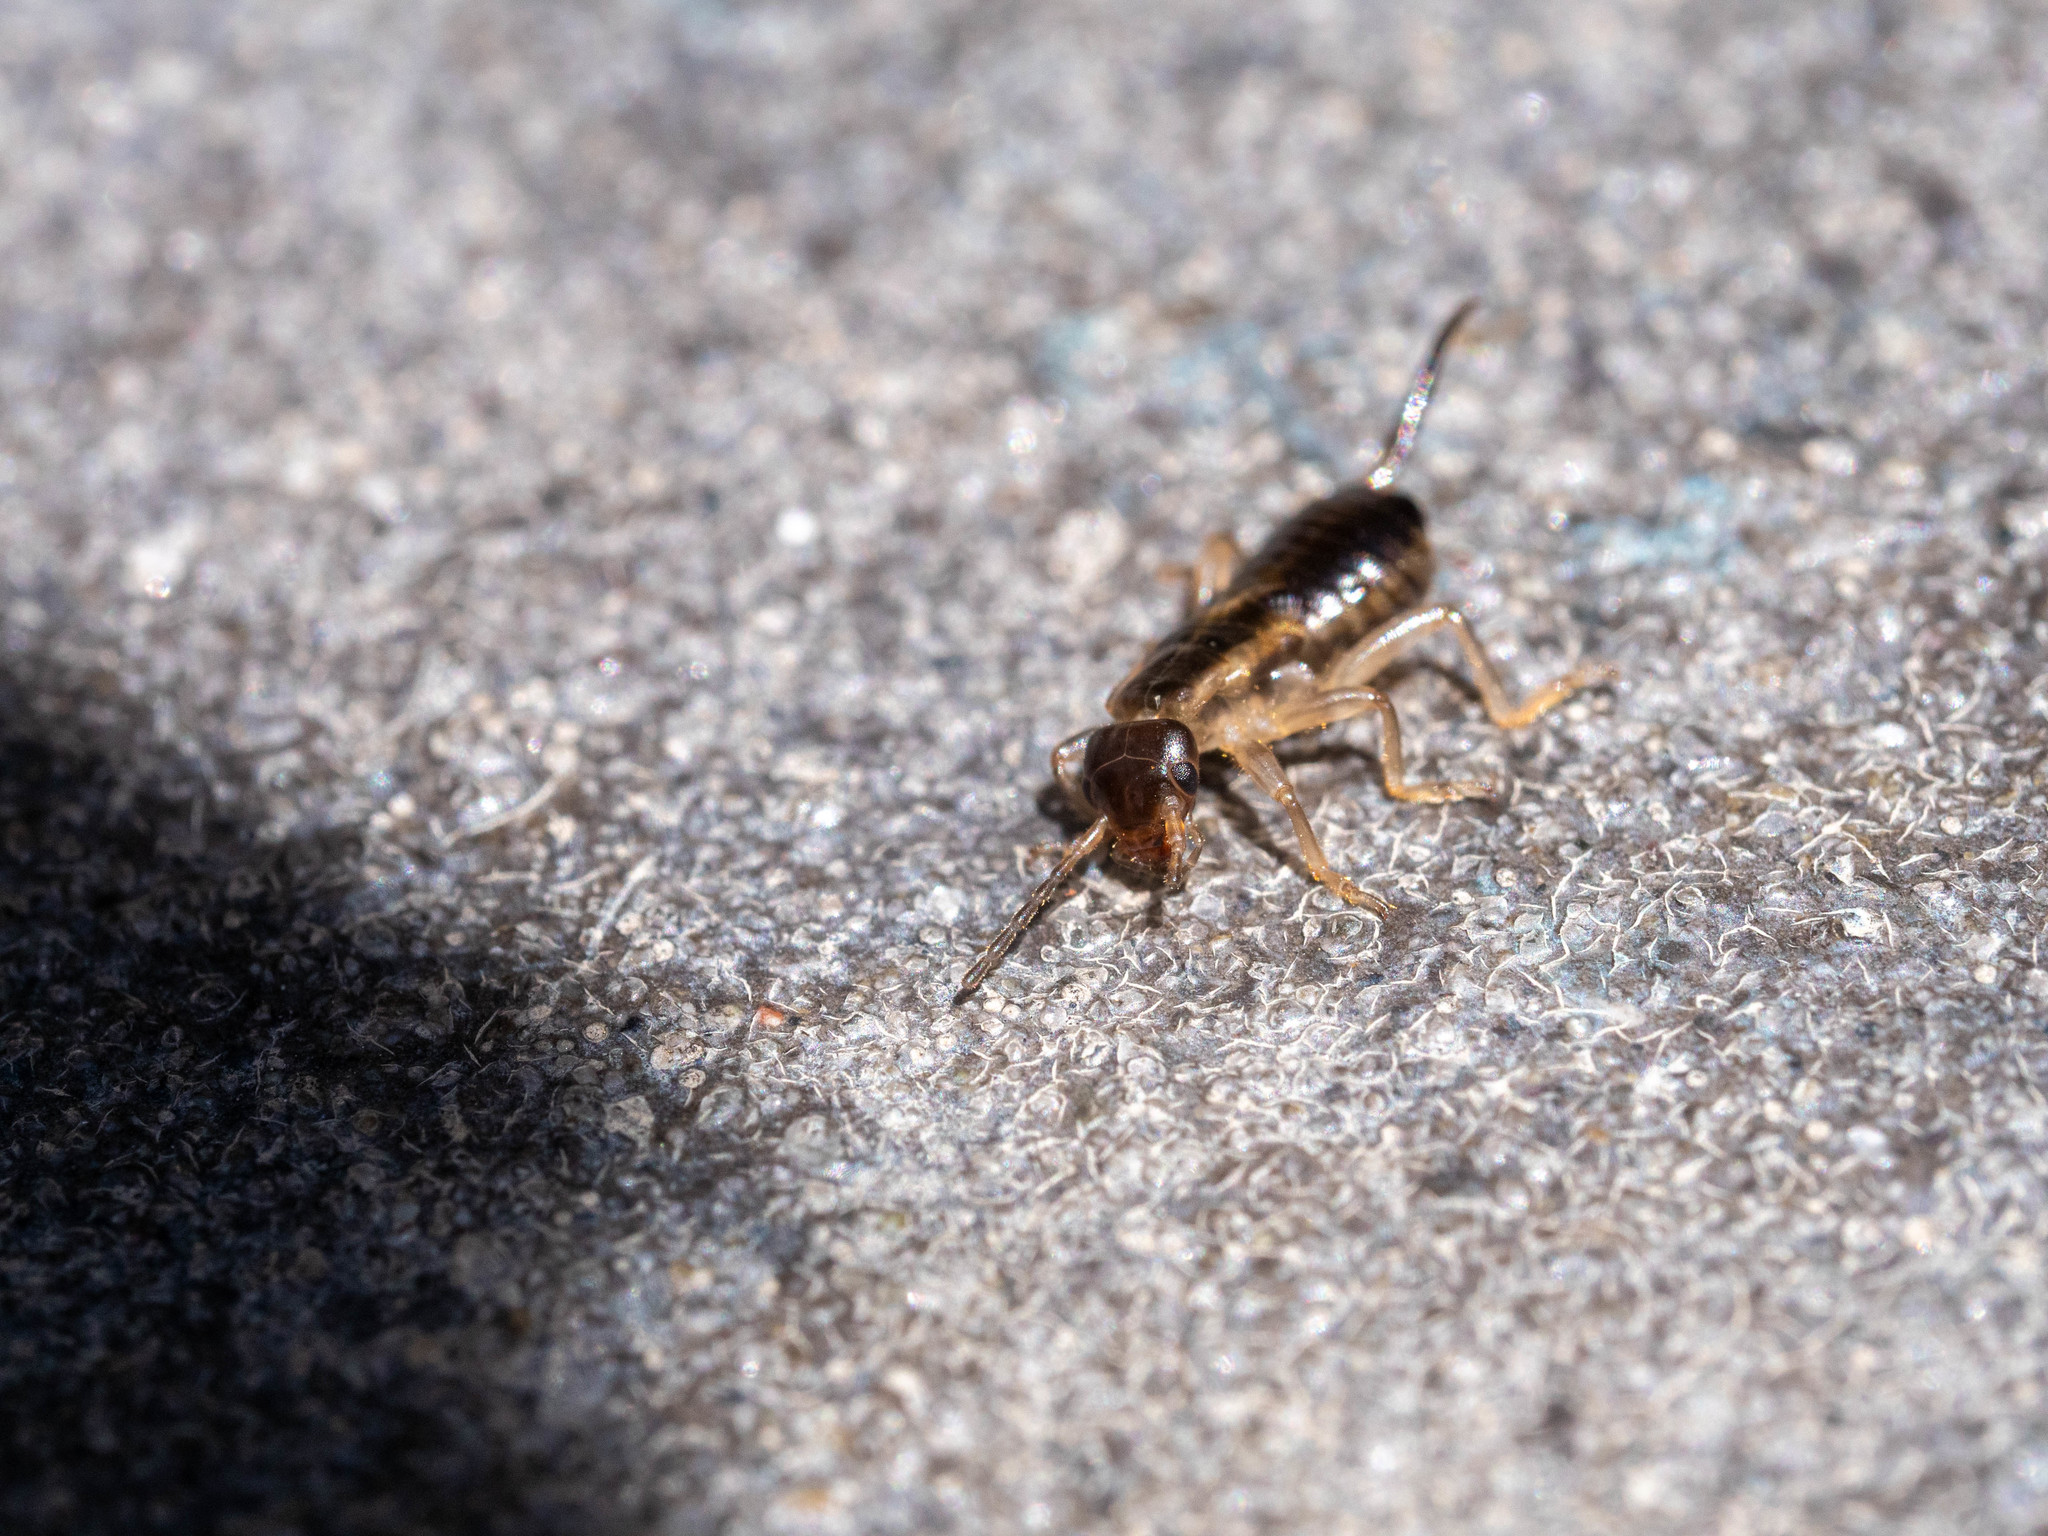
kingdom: Animalia
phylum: Arthropoda
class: Insecta
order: Dermaptera
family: Forficulidae
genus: Forficula
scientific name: Forficula dentata
